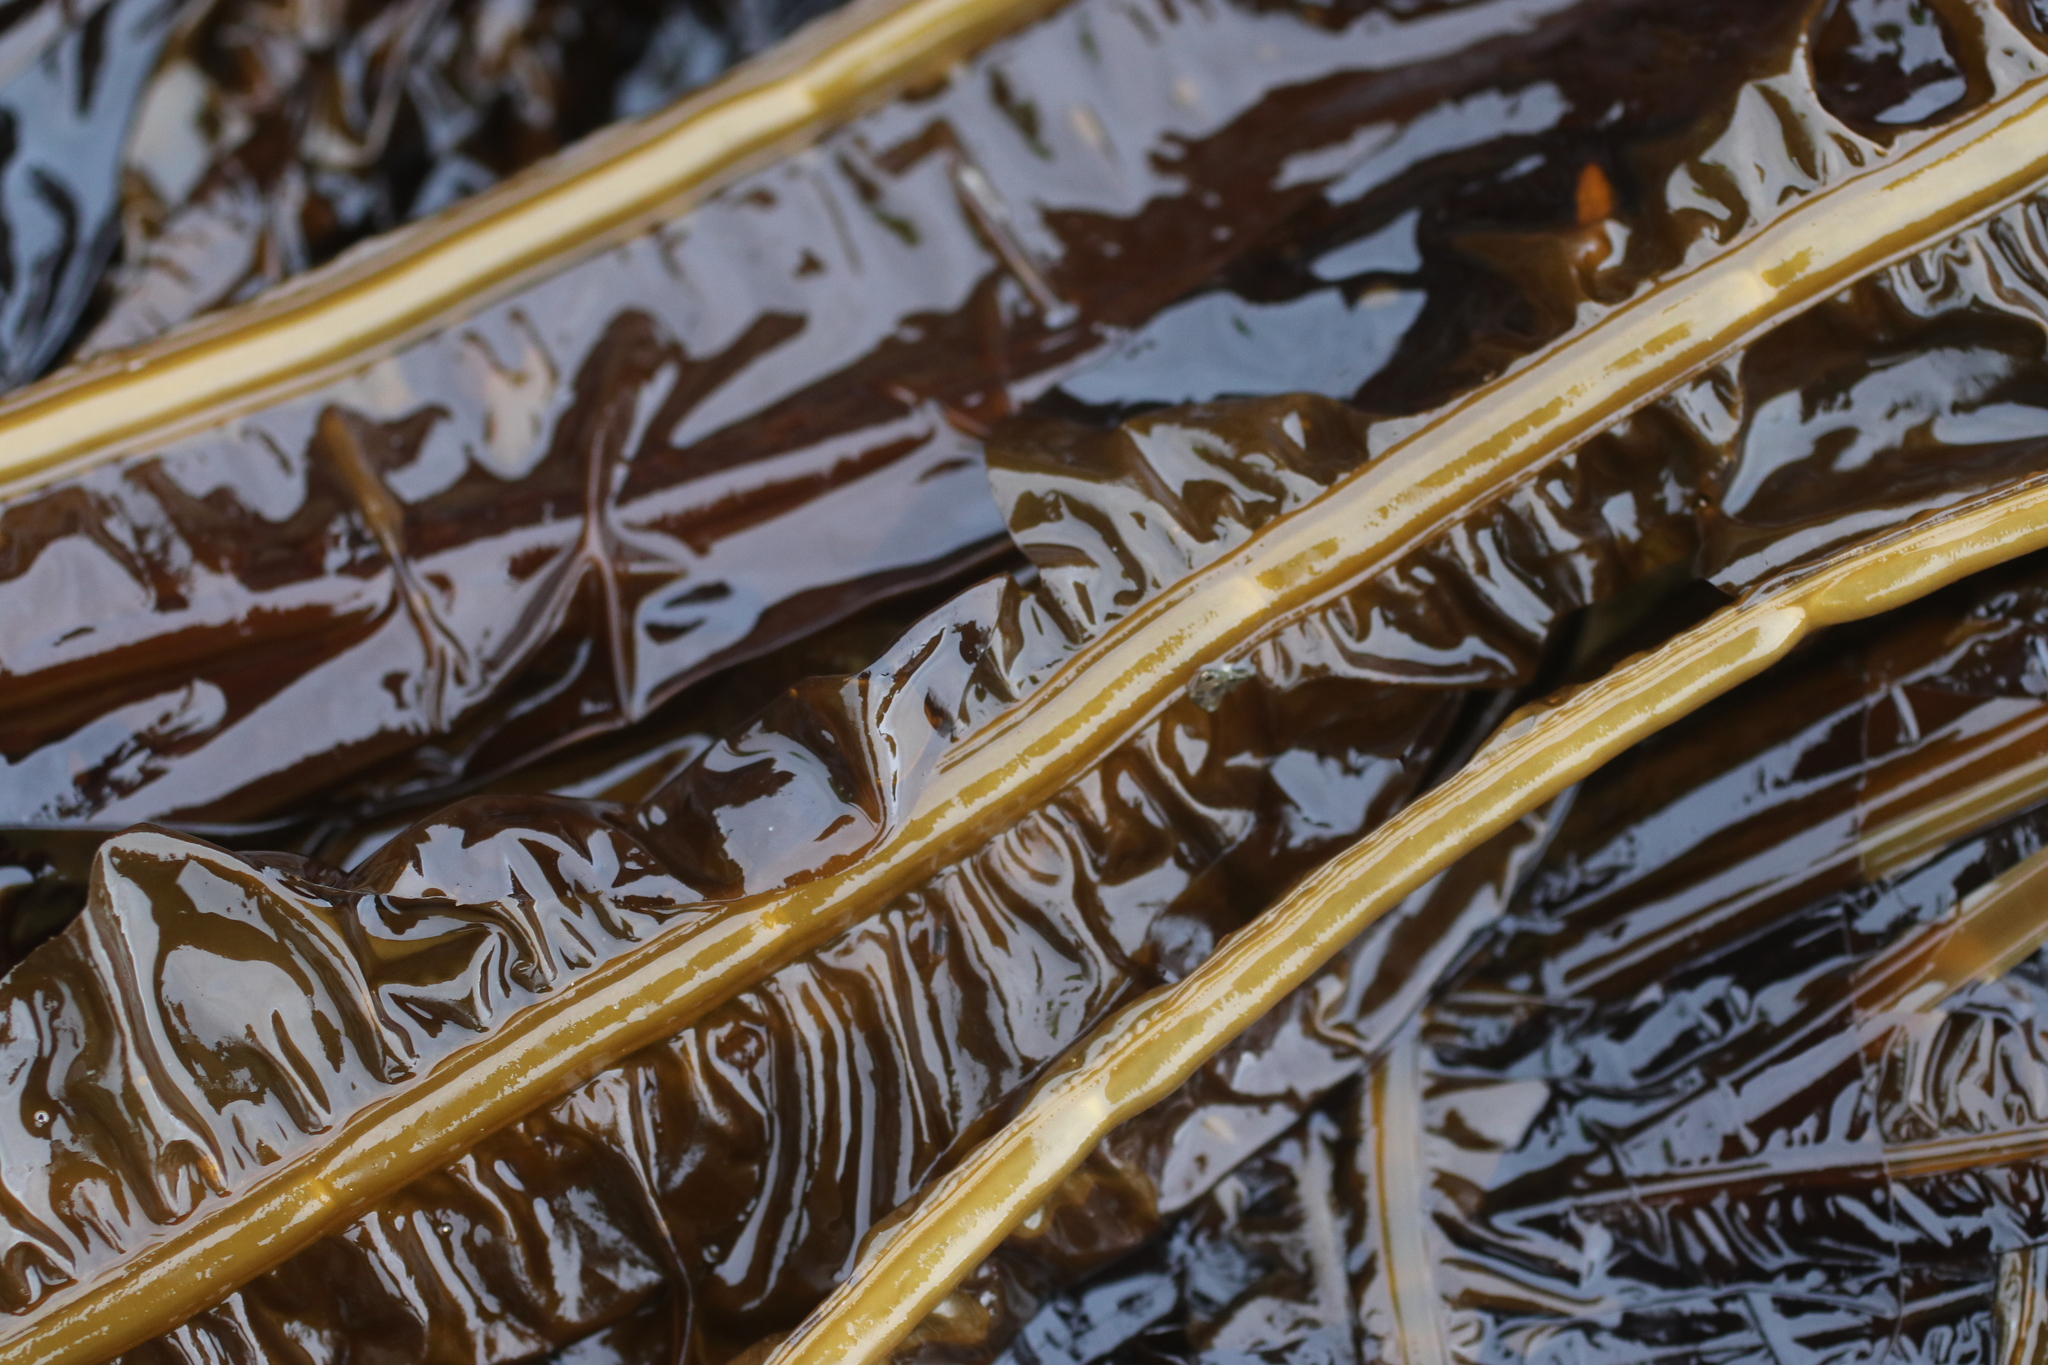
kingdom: Chromista
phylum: Ochrophyta
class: Phaeophyceae
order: Laminariales
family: Alariaceae
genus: Eualaria
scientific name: Eualaria
